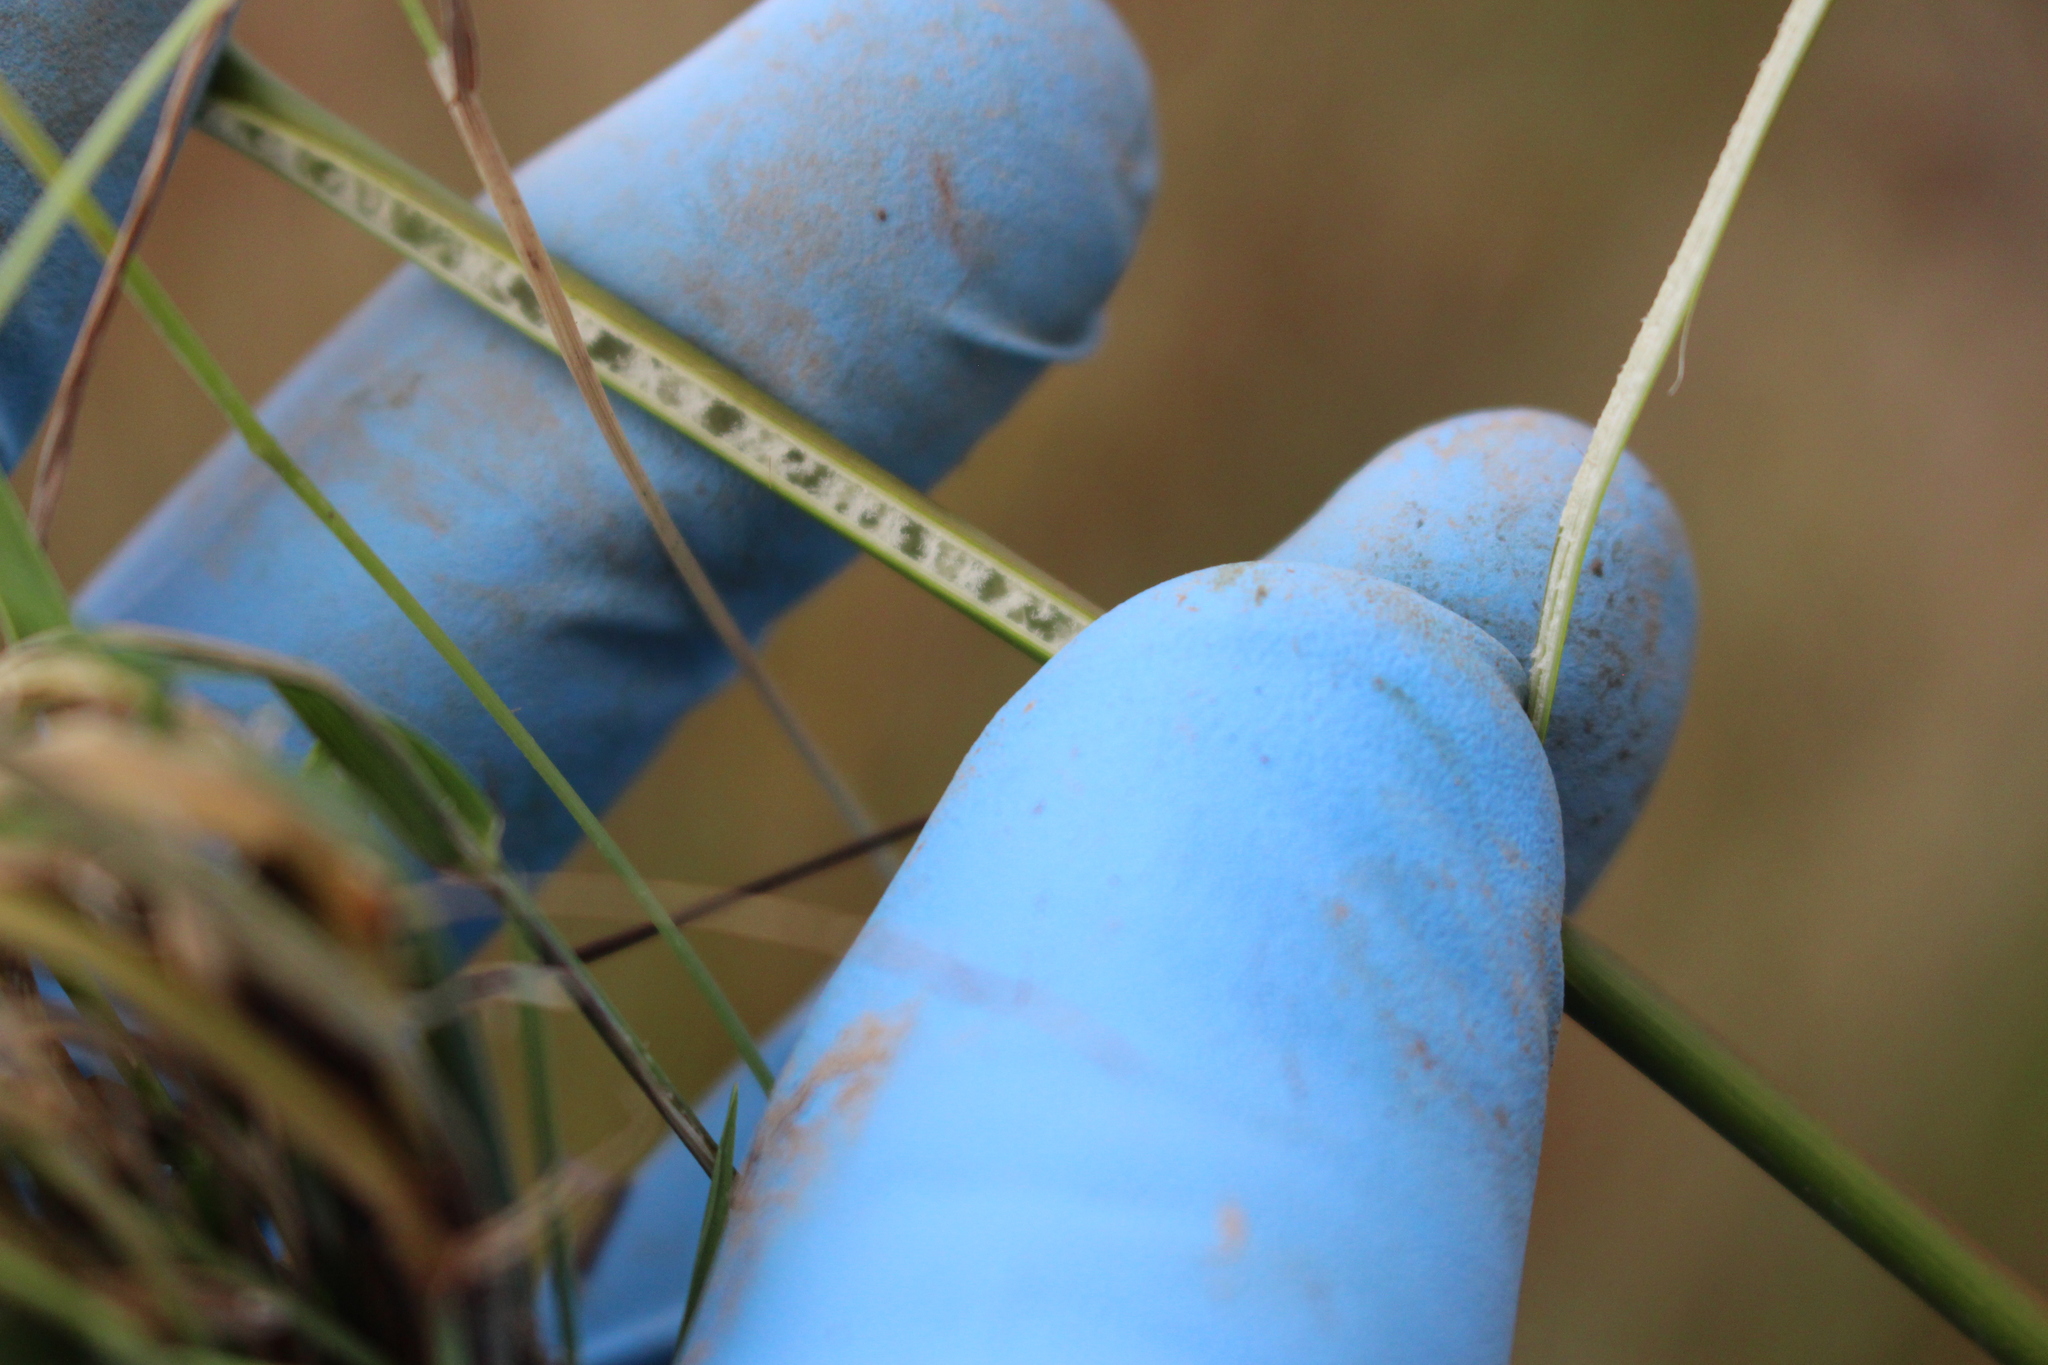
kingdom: Plantae
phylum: Tracheophyta
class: Liliopsida
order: Poales
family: Juncaceae
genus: Juncus
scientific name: Juncus edgariae
